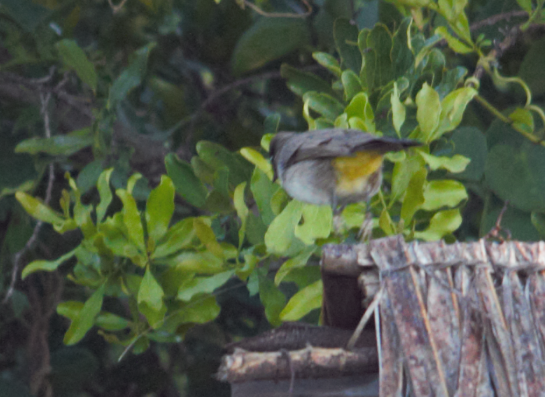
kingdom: Animalia
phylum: Chordata
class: Aves
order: Passeriformes
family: Pycnonotidae
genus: Pycnonotus
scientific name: Pycnonotus barbatus
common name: Common bulbul
